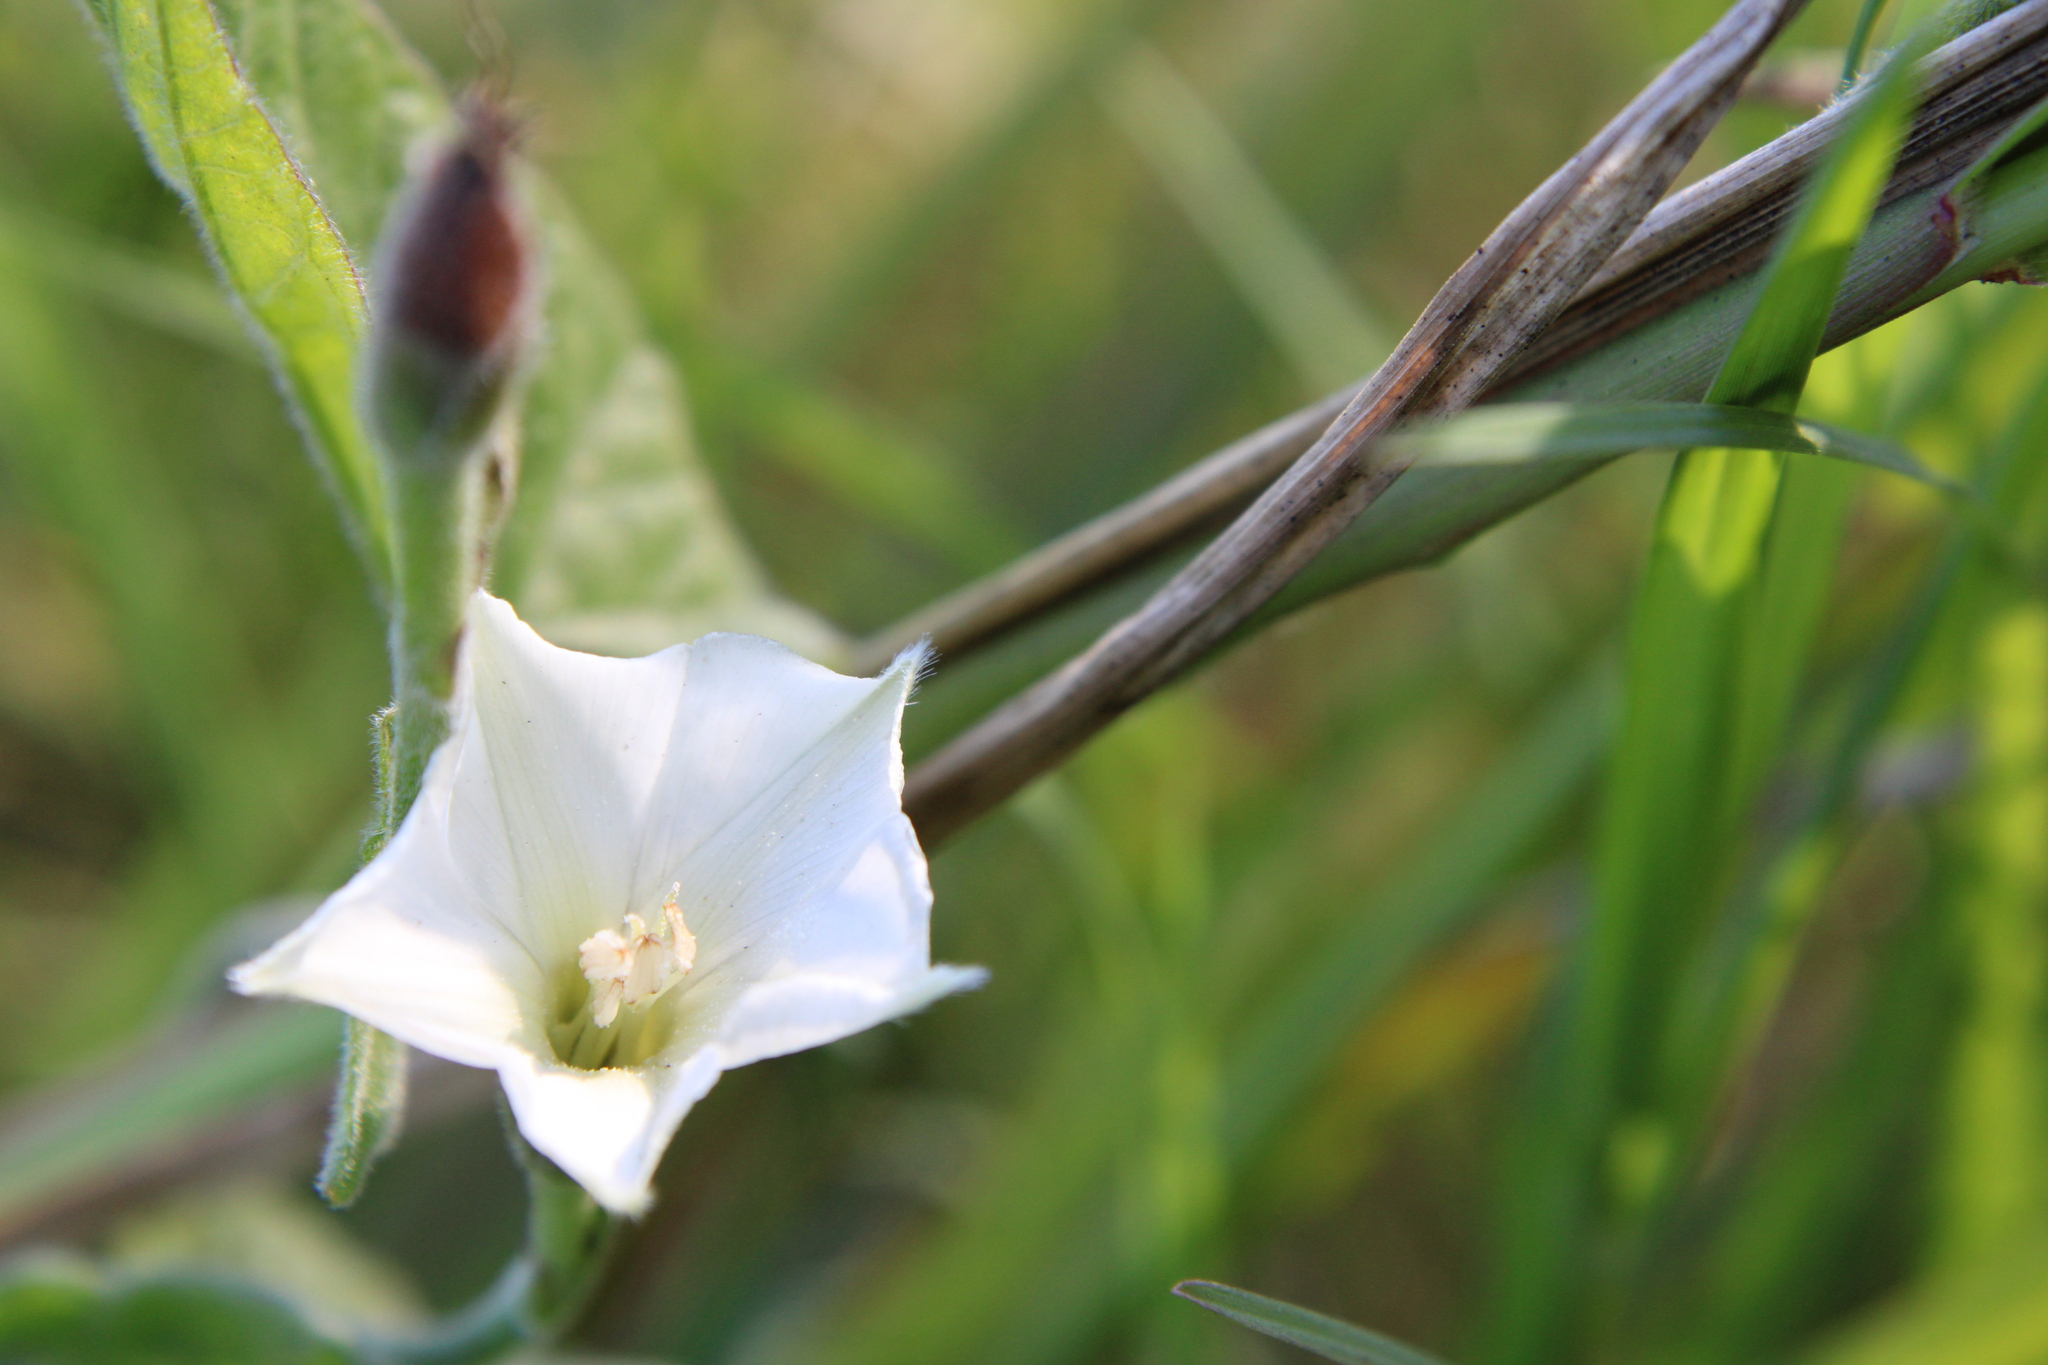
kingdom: Plantae
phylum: Tracheophyta
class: Magnoliopsida
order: Solanales
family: Convolvulaceae
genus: Convolvulus
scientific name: Convolvulus crenatifolius
